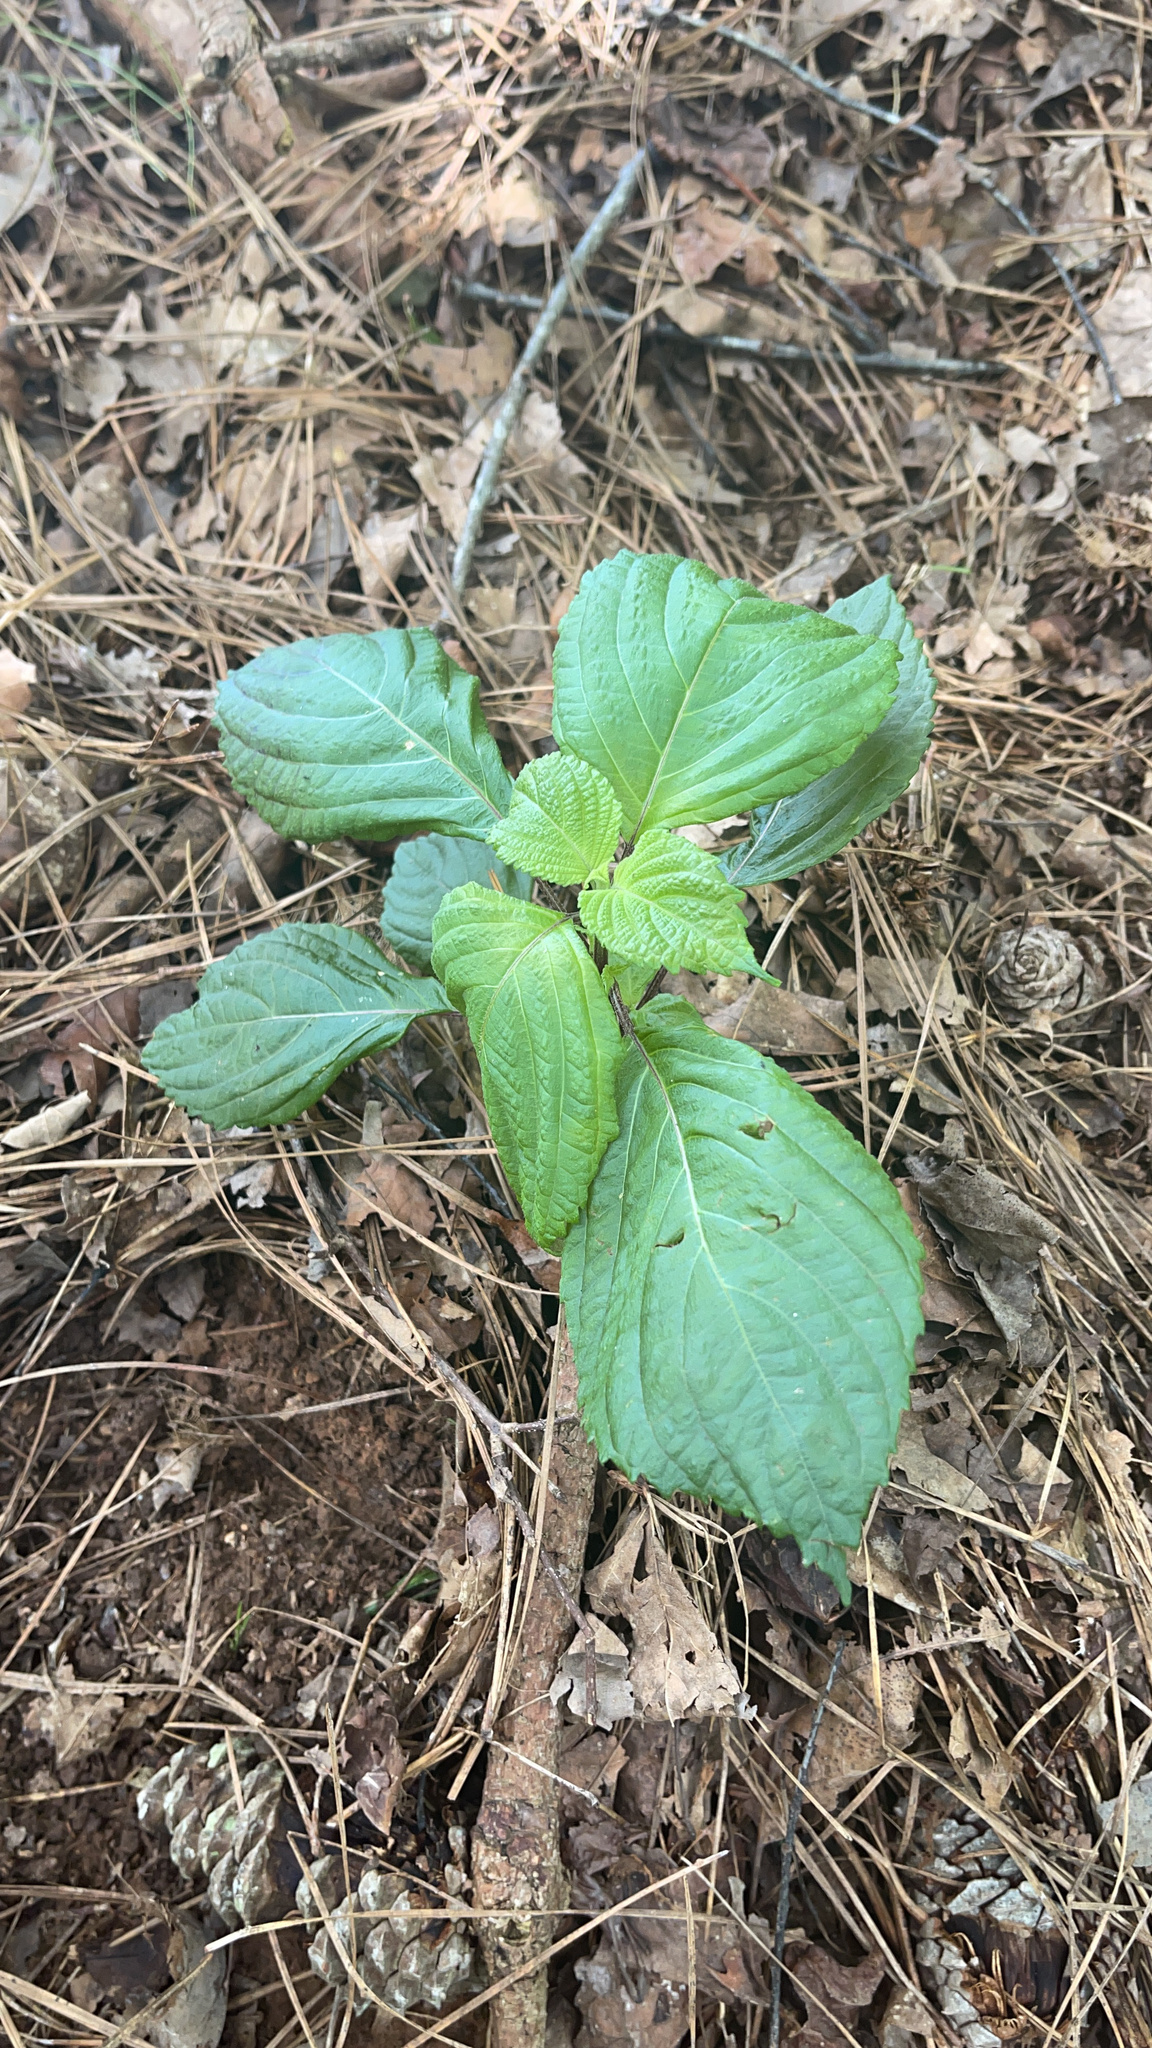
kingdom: Plantae
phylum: Tracheophyta
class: Magnoliopsida
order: Lamiales
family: Lamiaceae
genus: Perilla
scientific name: Perilla frutescens
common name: Perilla
